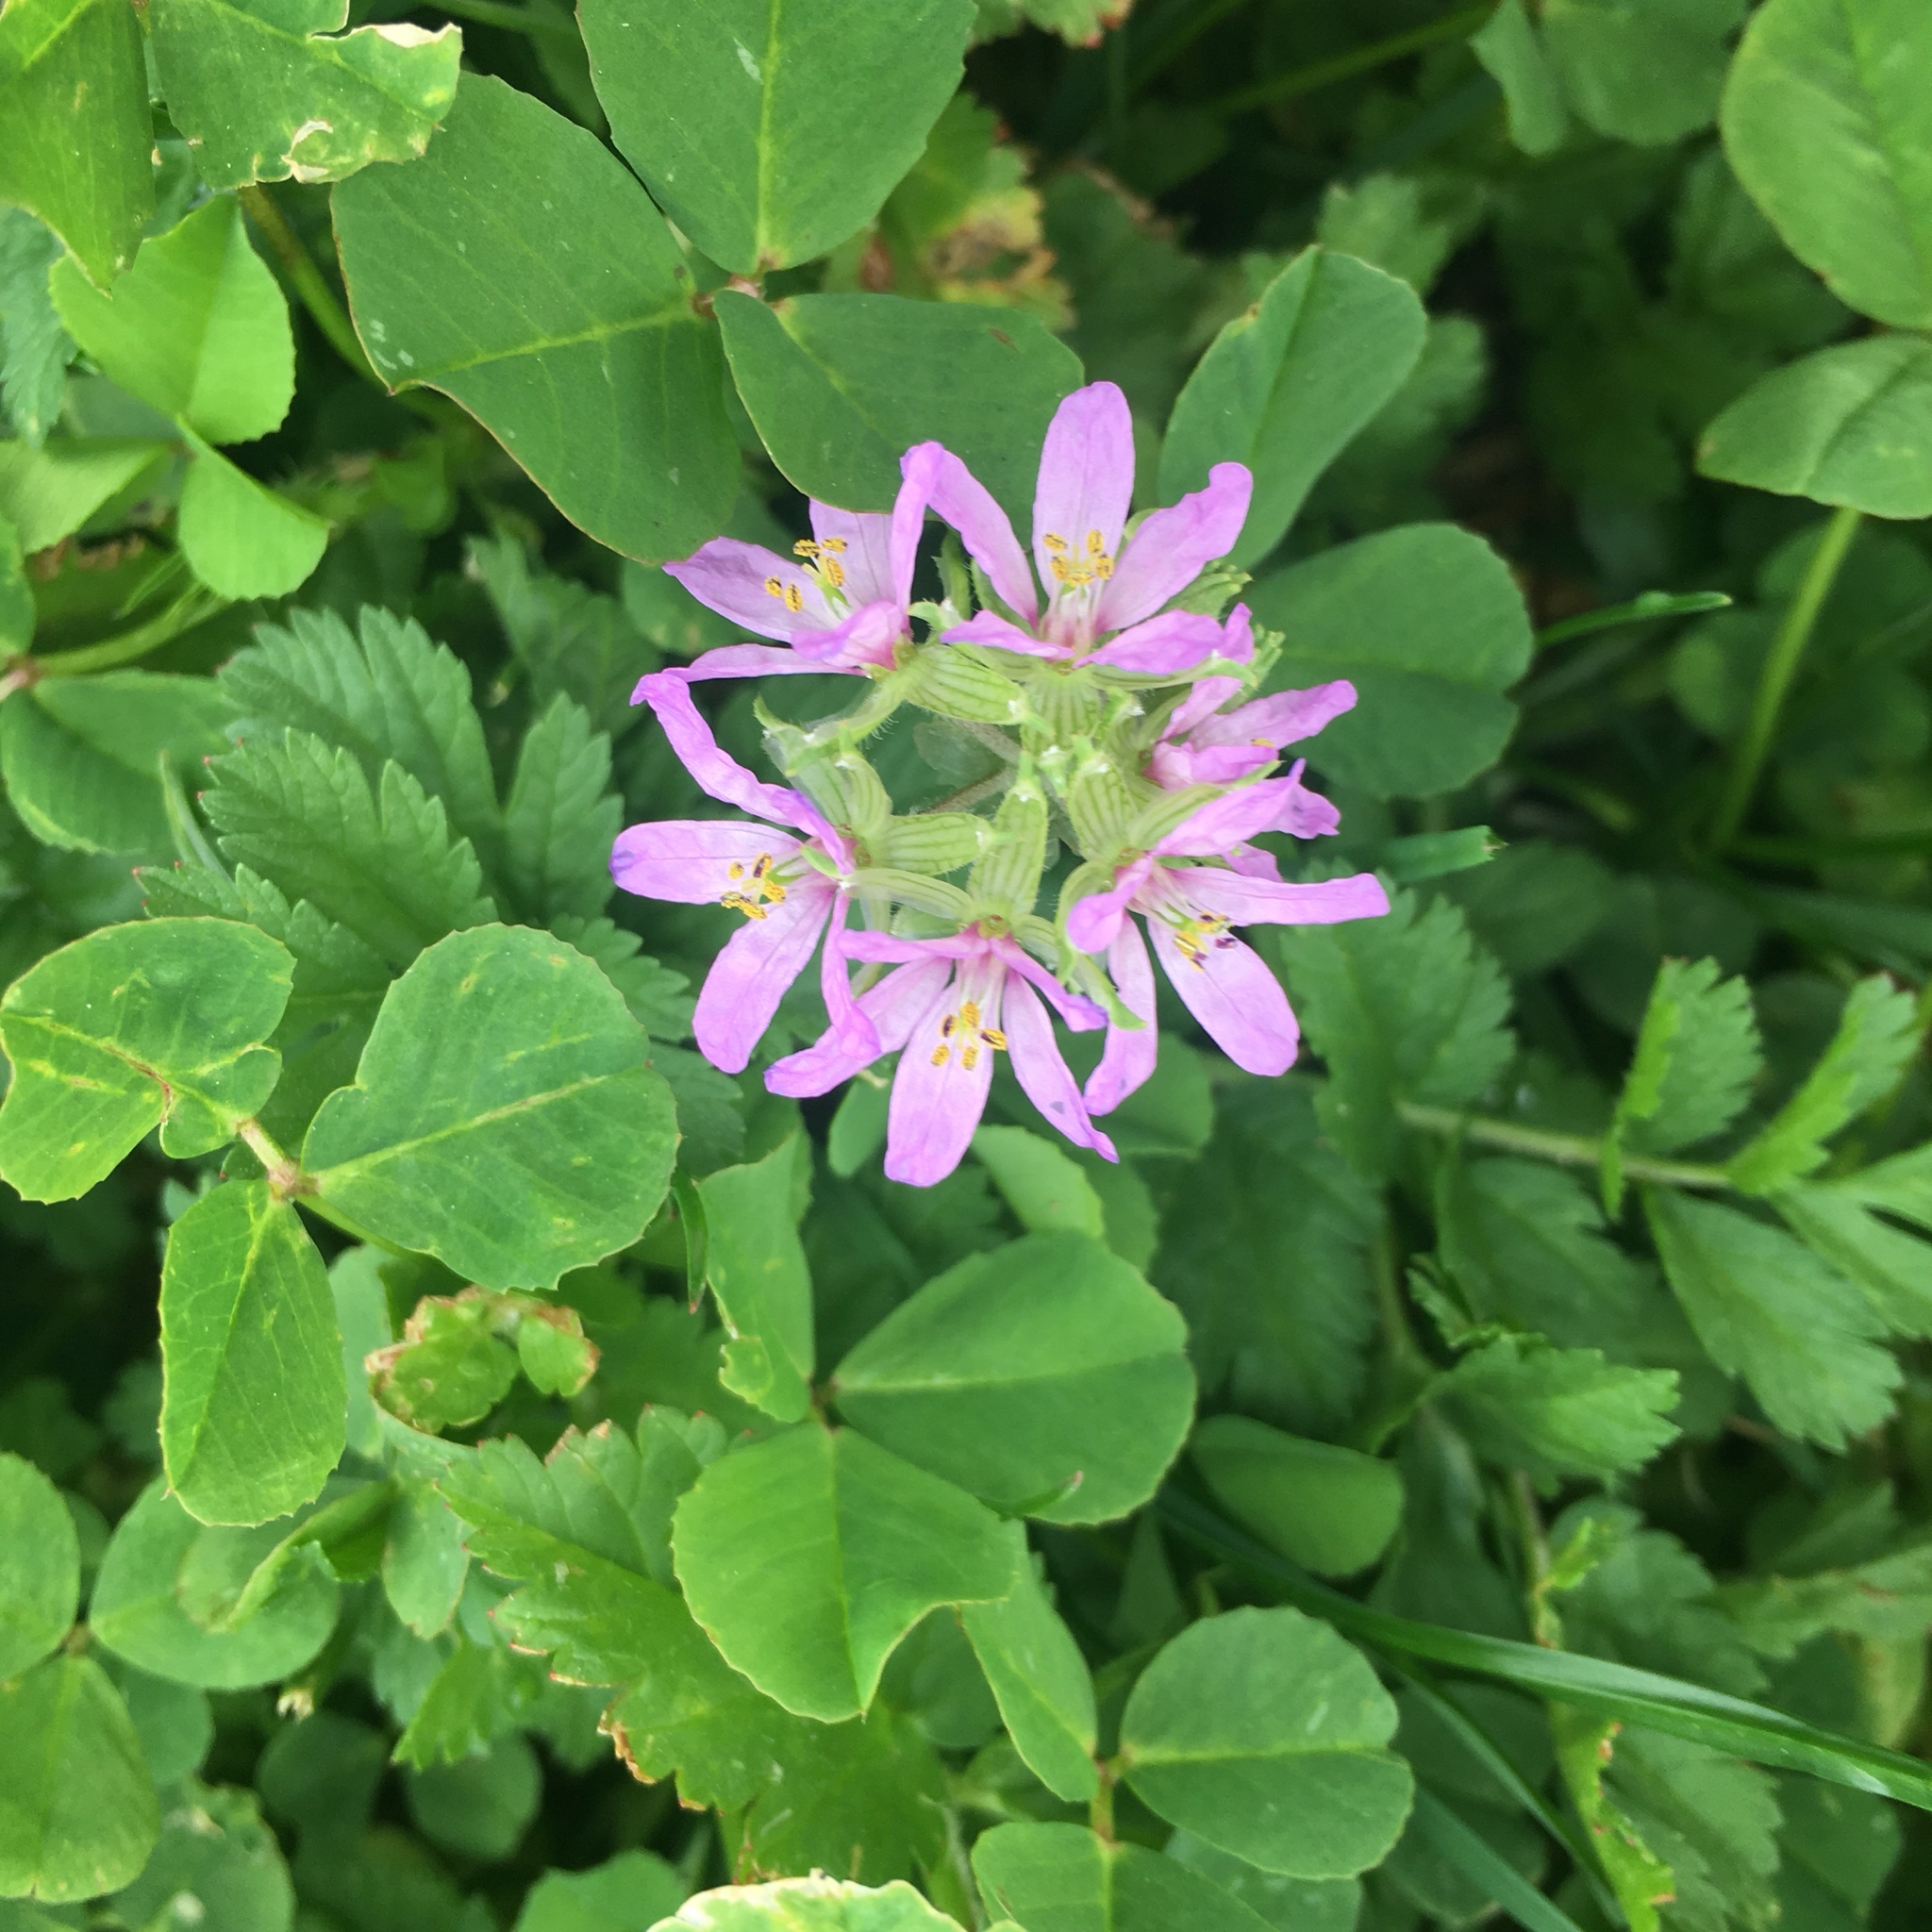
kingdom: Plantae
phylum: Tracheophyta
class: Magnoliopsida
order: Geraniales
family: Geraniaceae
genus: Erodium
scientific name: Erodium moschatum
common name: Musk stork's-bill
